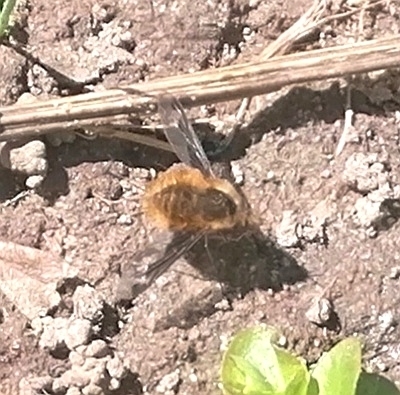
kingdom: Animalia
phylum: Arthropoda
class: Insecta
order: Diptera
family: Bombyliidae
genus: Bombylius
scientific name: Bombylius major
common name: Bee fly
